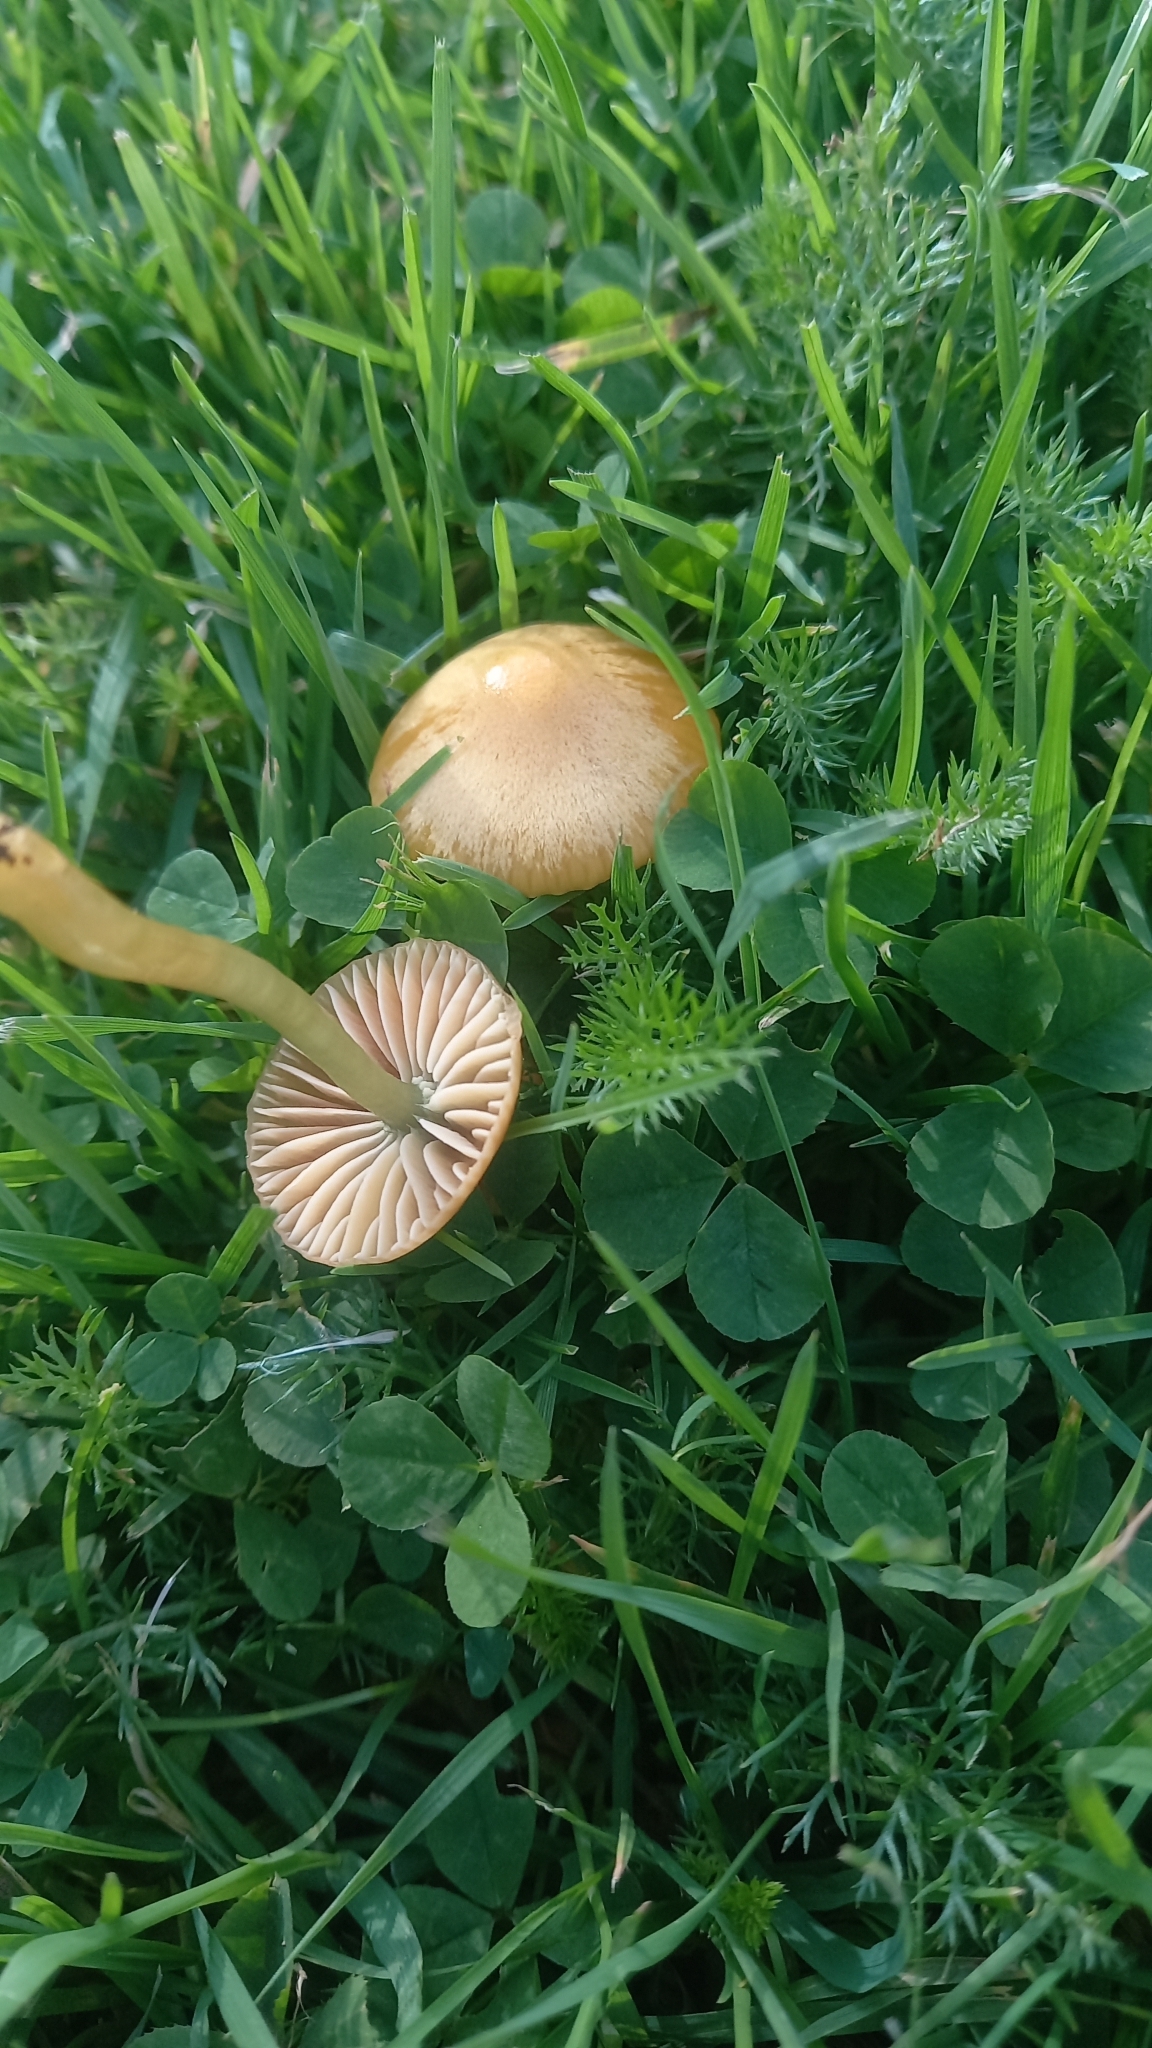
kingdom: Fungi
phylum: Basidiomycota
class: Agaricomycetes
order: Agaricales
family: Hygrophoraceae
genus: Gliophorus
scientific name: Gliophorus psittacinus
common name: Parrot wax-cap
